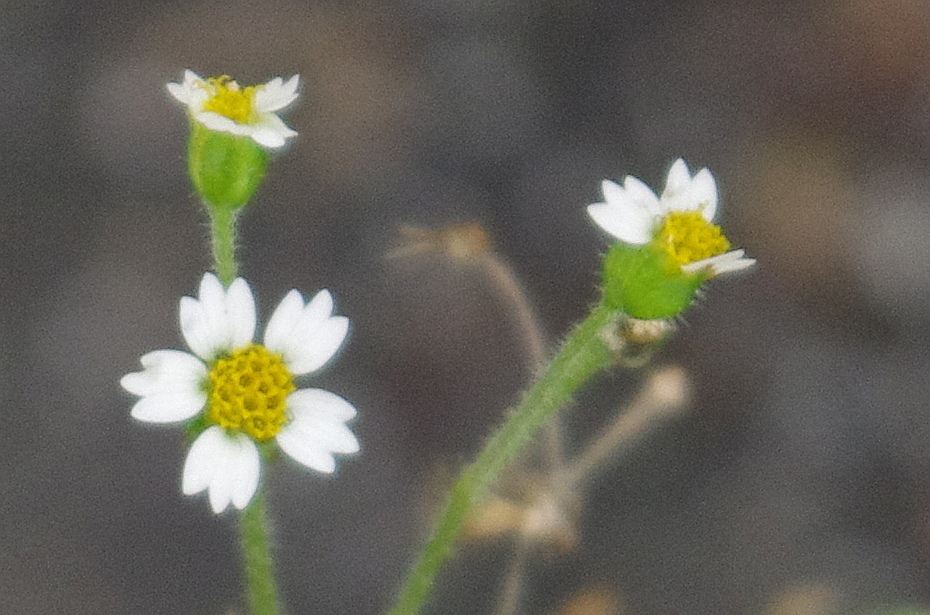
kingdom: Plantae
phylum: Tracheophyta
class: Magnoliopsida
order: Asterales
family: Asteraceae
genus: Galinsoga
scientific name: Galinsoga quadriradiata
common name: Shaggy soldier
